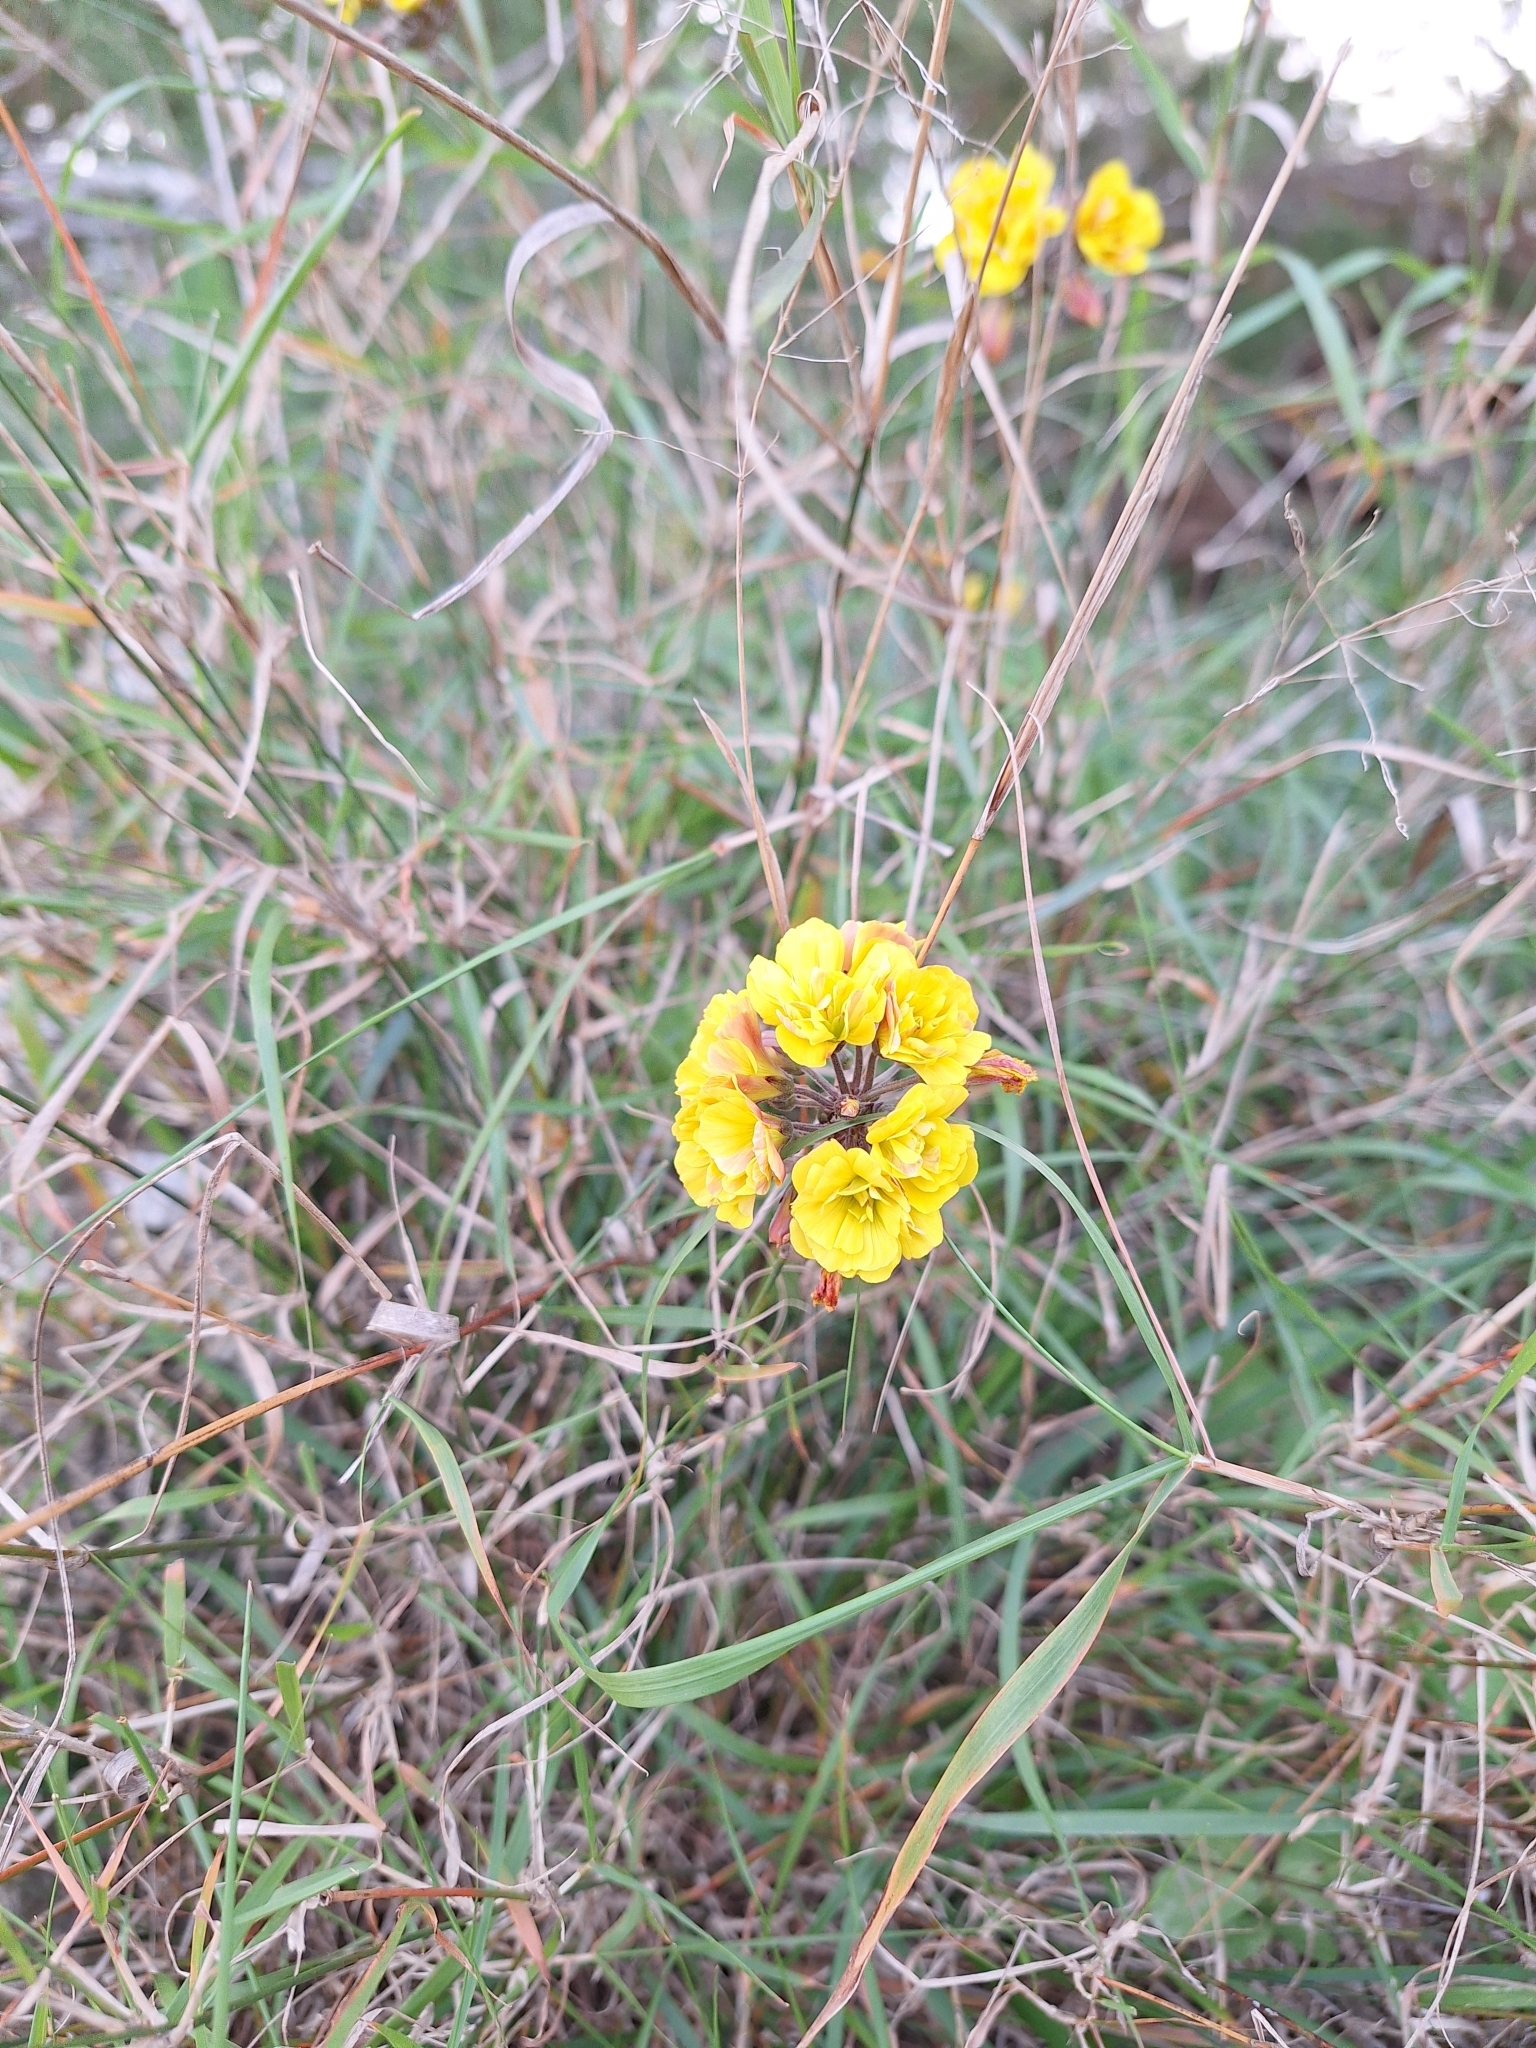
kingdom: Plantae
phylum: Tracheophyta
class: Magnoliopsida
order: Oxalidales
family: Oxalidaceae
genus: Oxalis
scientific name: Oxalis pes-caprae
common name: Bermuda-buttercup
